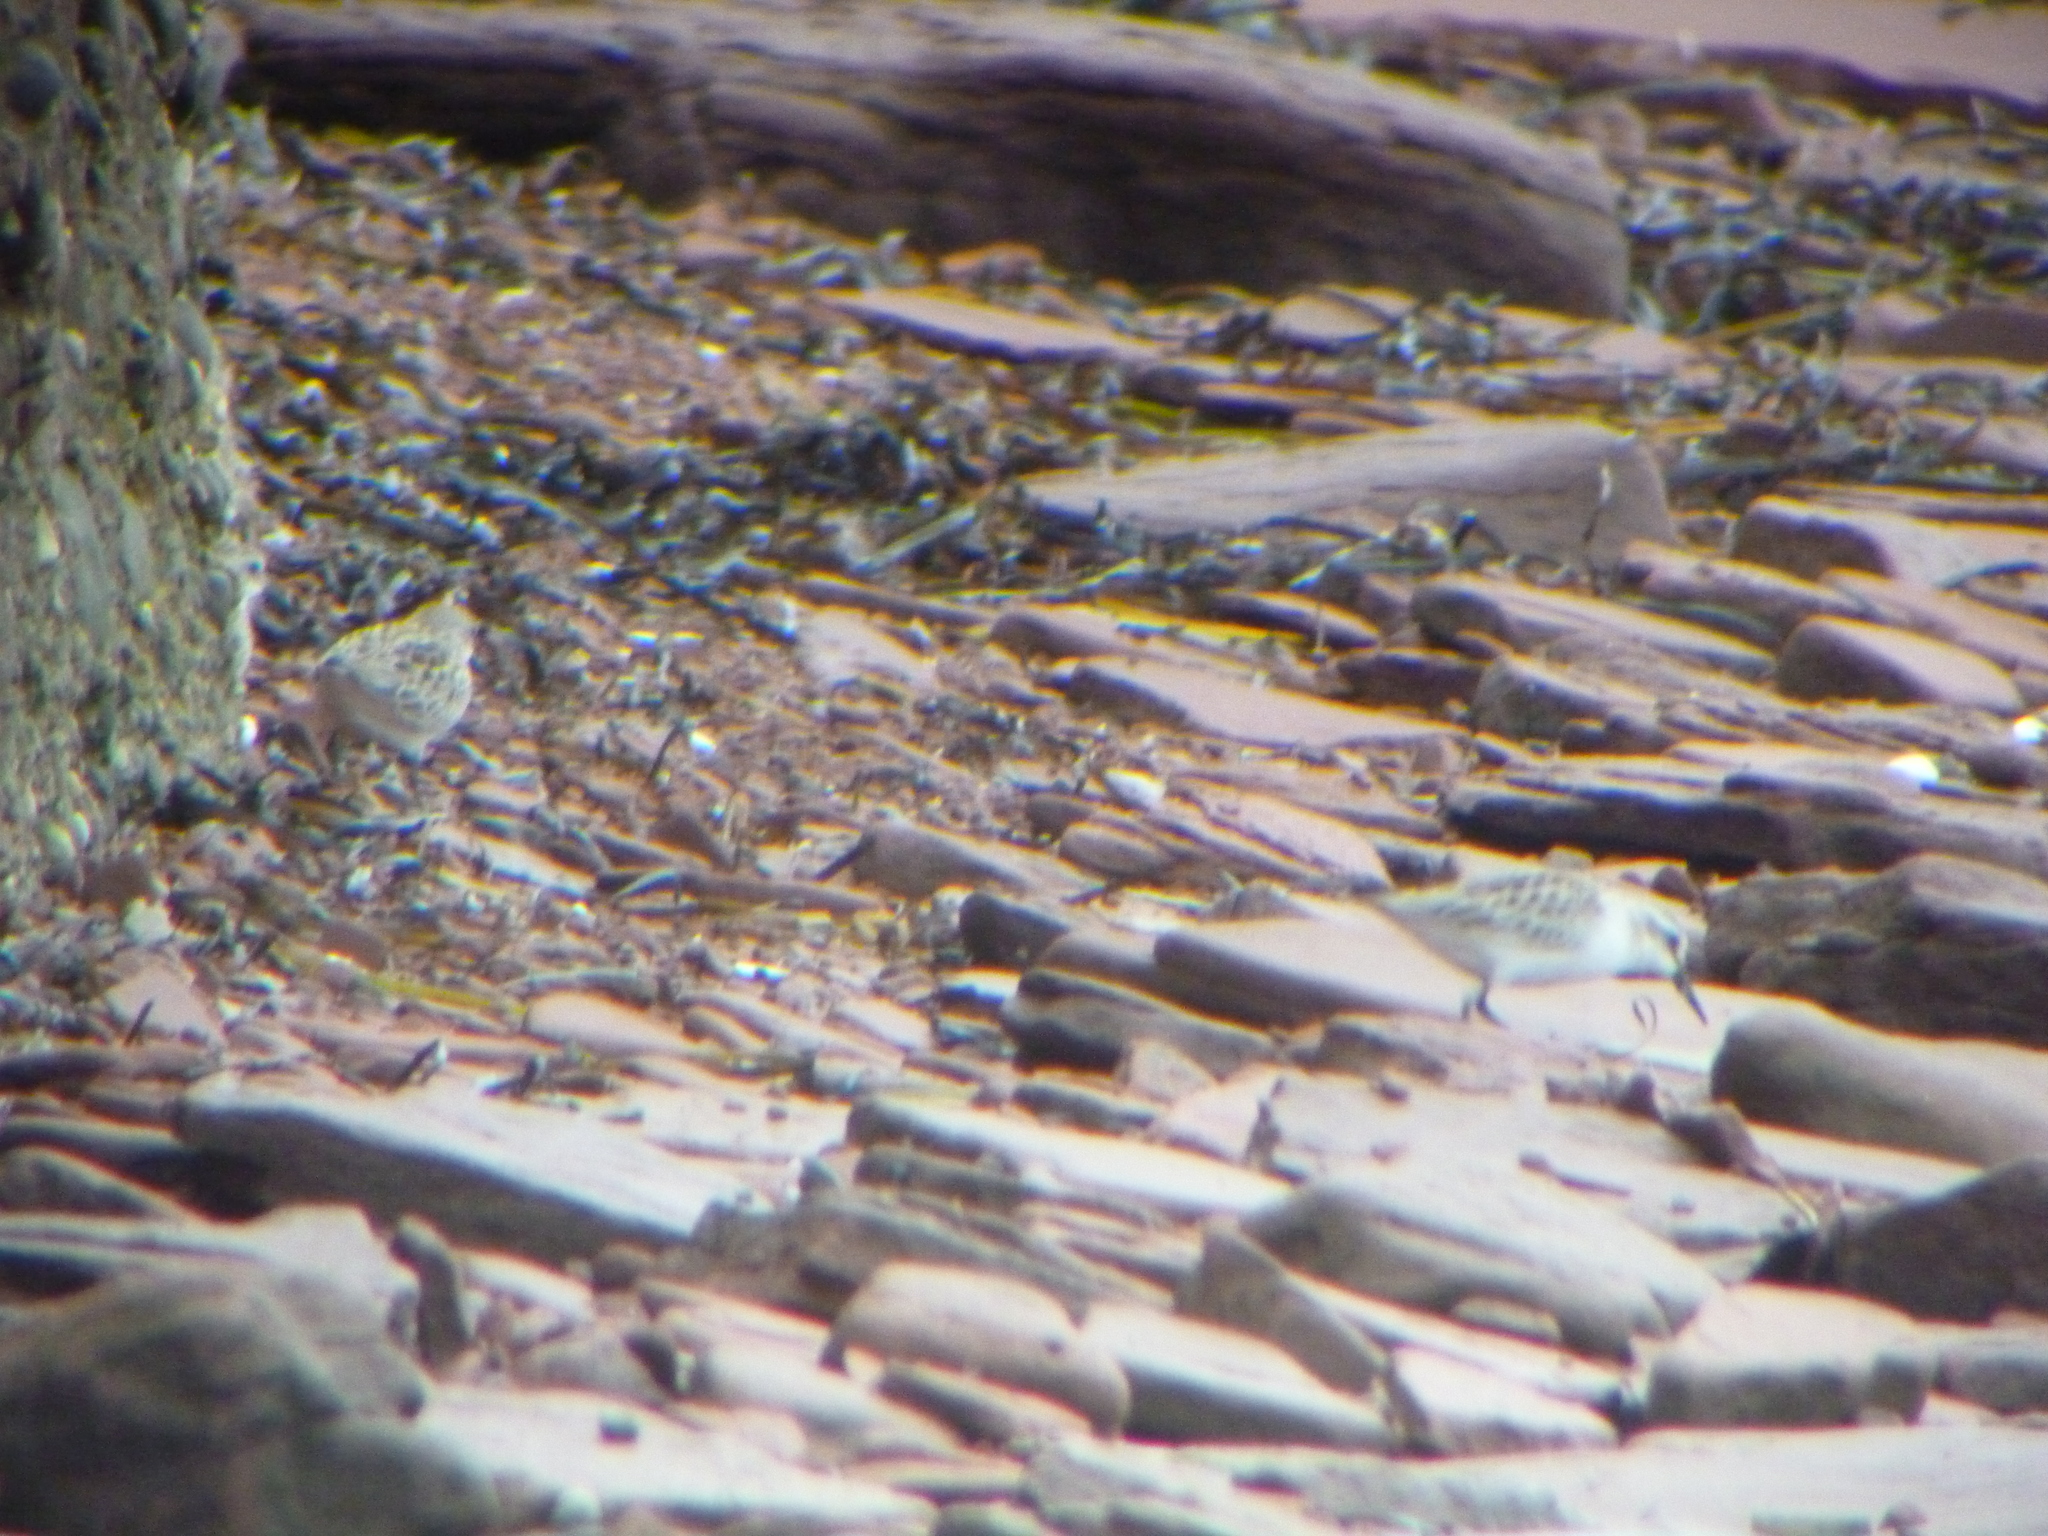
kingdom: Animalia
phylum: Chordata
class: Aves
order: Charadriiformes
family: Scolopacidae
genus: Calidris
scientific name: Calidris pusilla
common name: Semipalmated sandpiper
